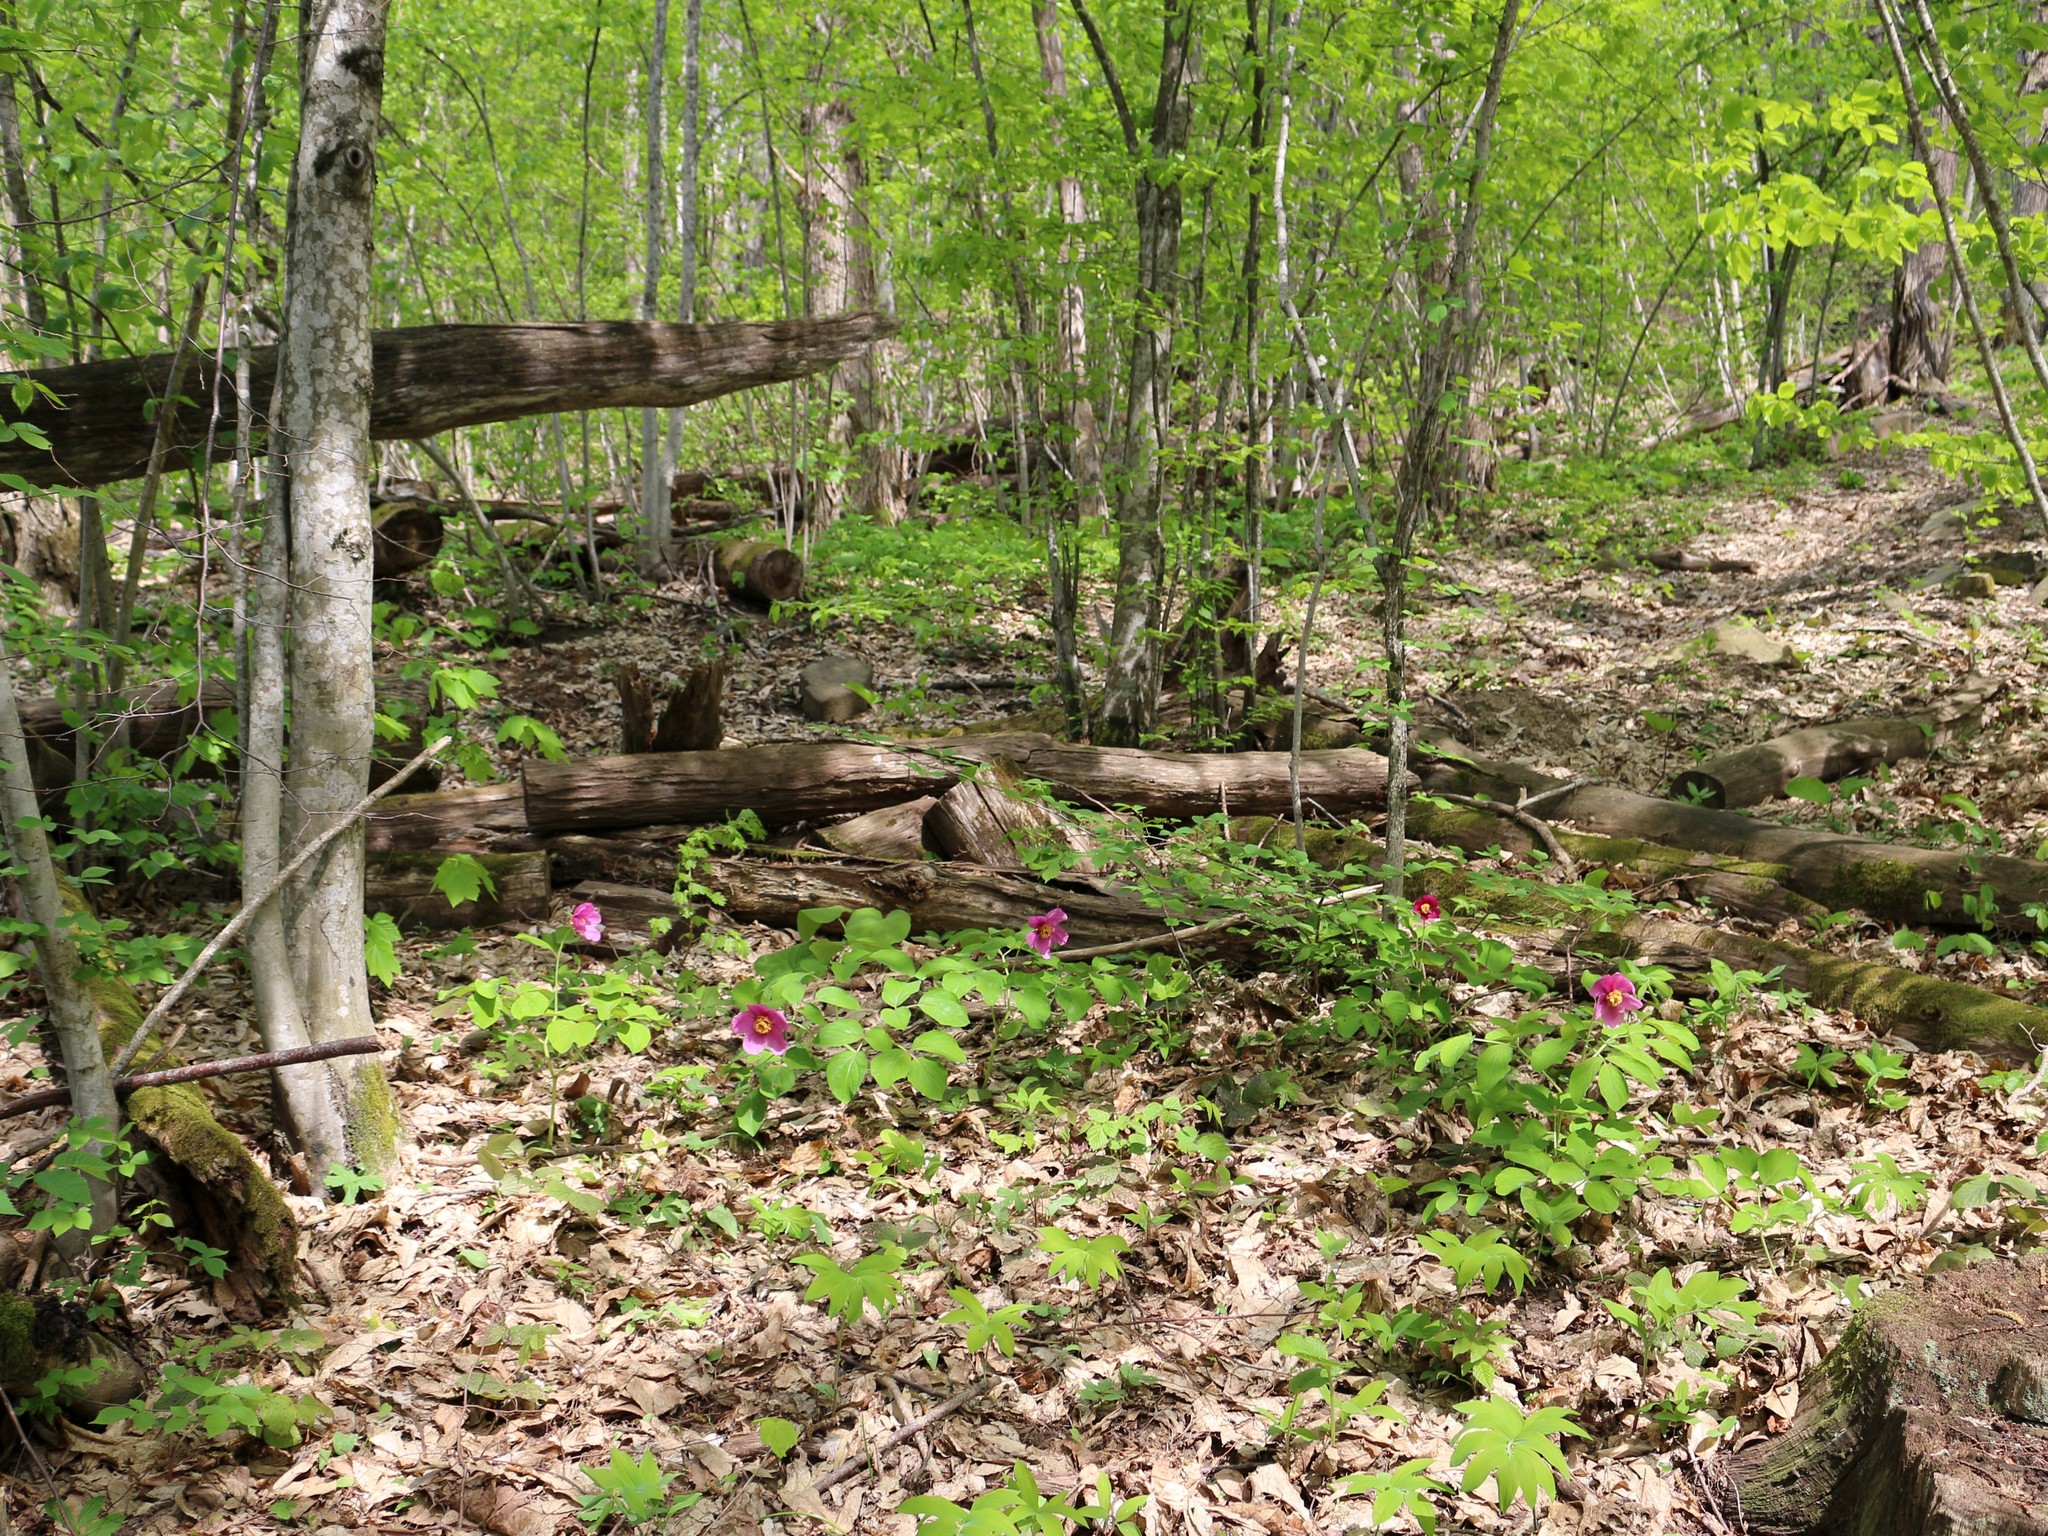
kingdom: Plantae
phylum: Tracheophyta
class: Magnoliopsida
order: Saxifragales
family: Paeoniaceae
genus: Paeonia
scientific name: Paeonia caucasica
